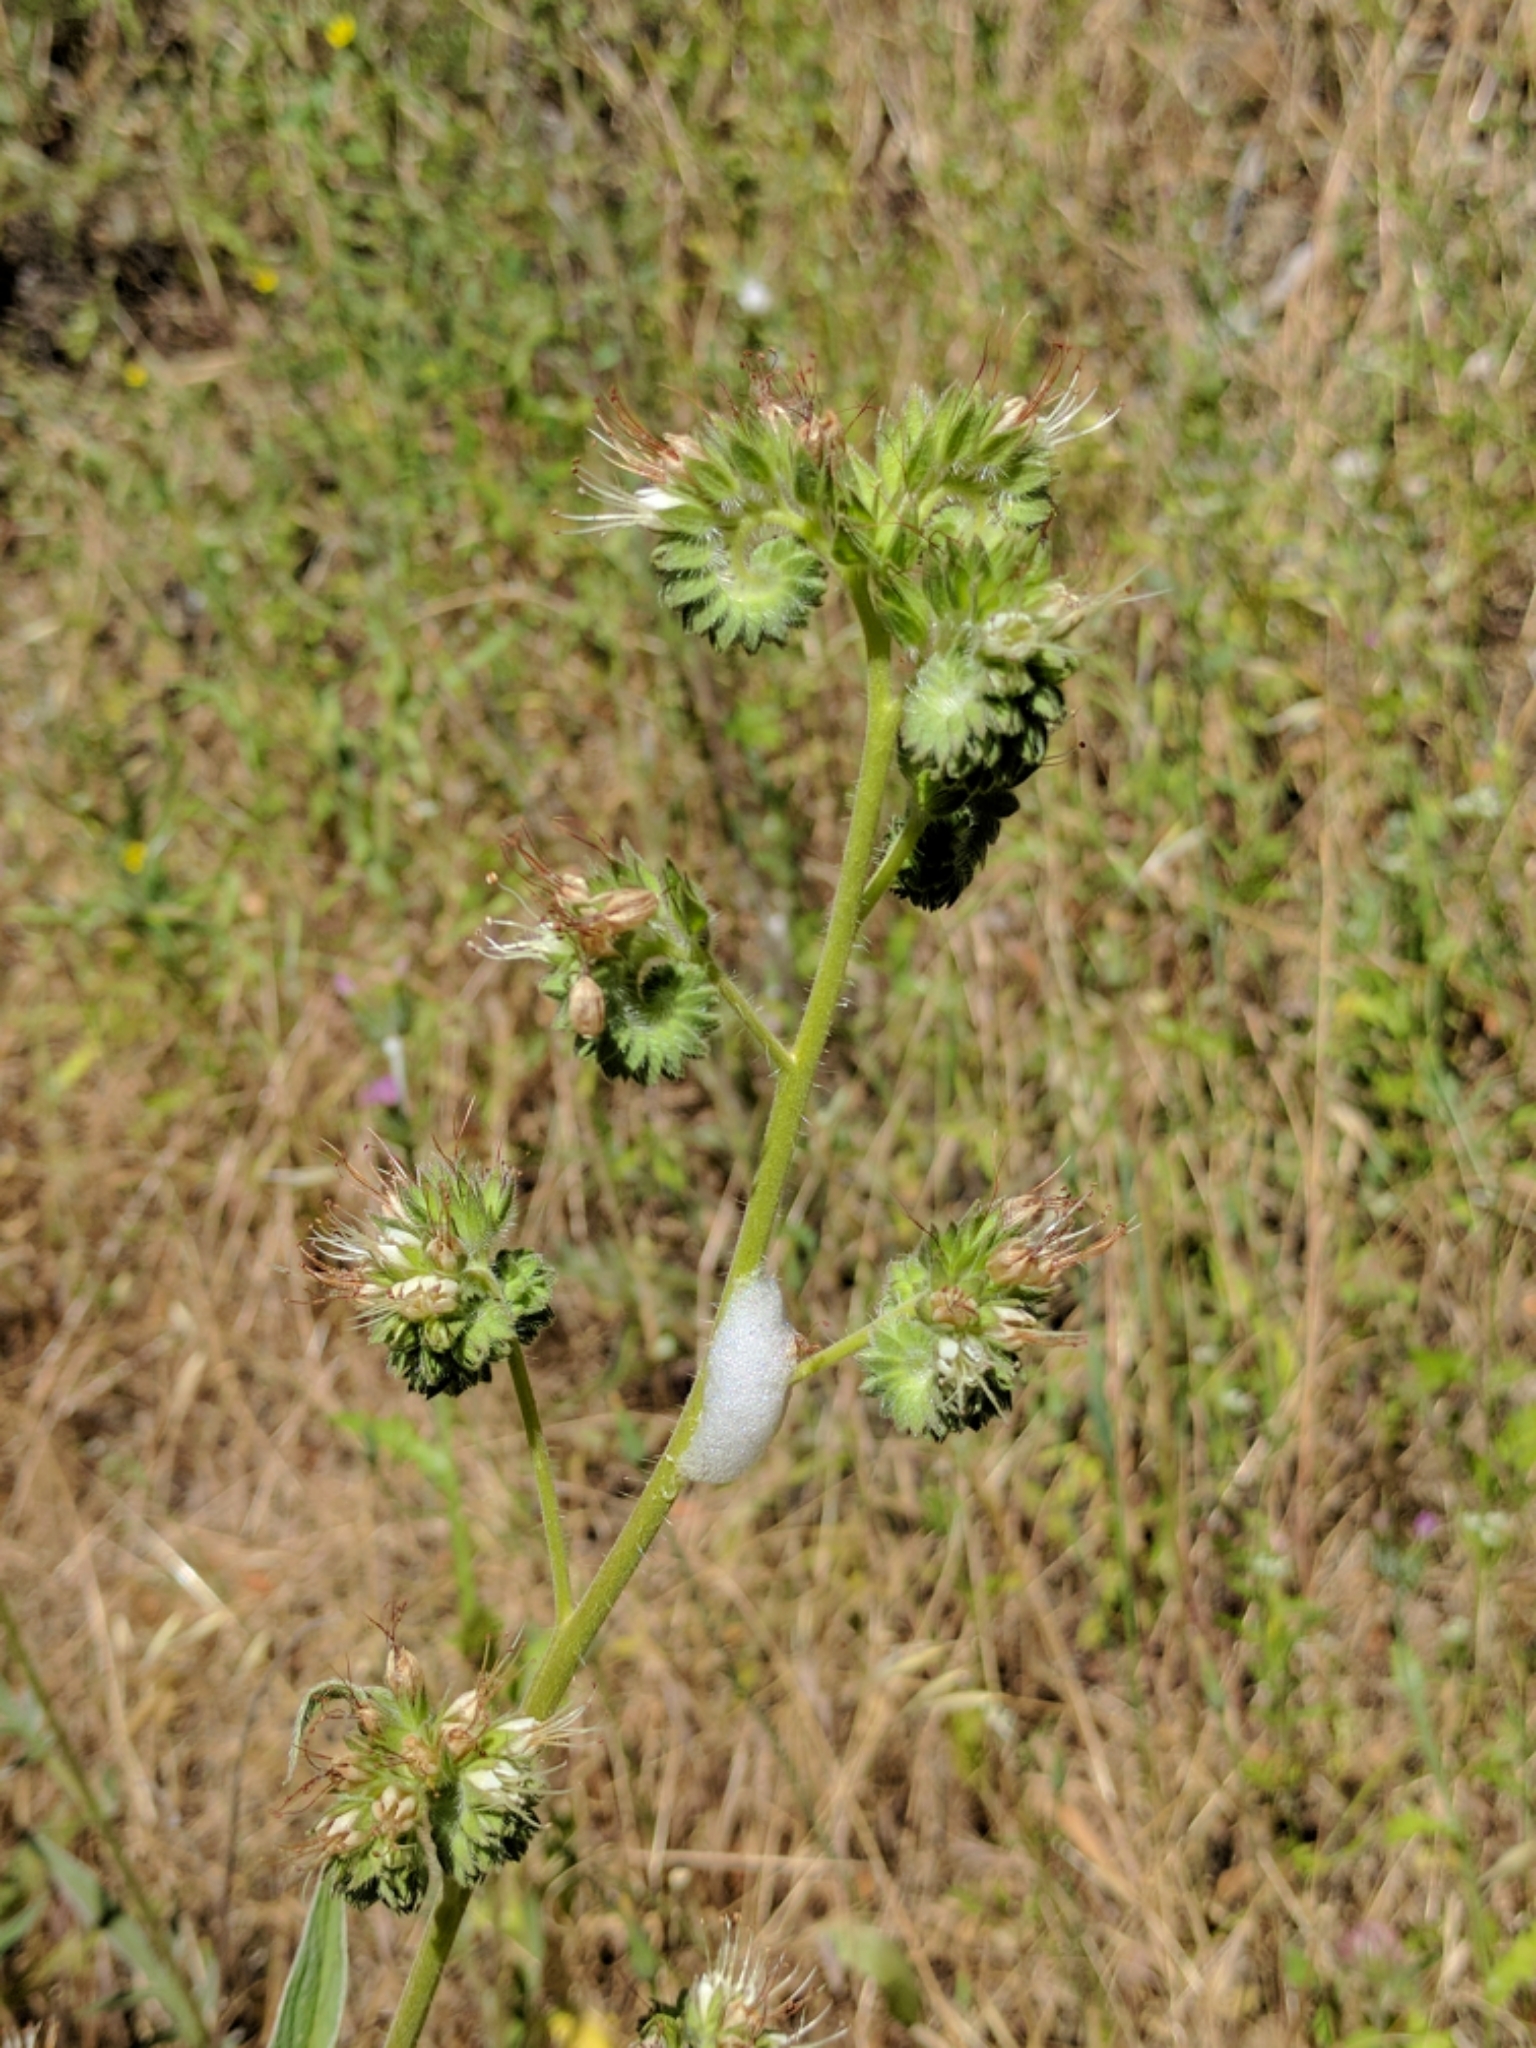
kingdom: Plantae
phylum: Tracheophyta
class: Magnoliopsida
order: Boraginales
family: Hydrophyllaceae
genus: Phacelia
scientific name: Phacelia imbricata
